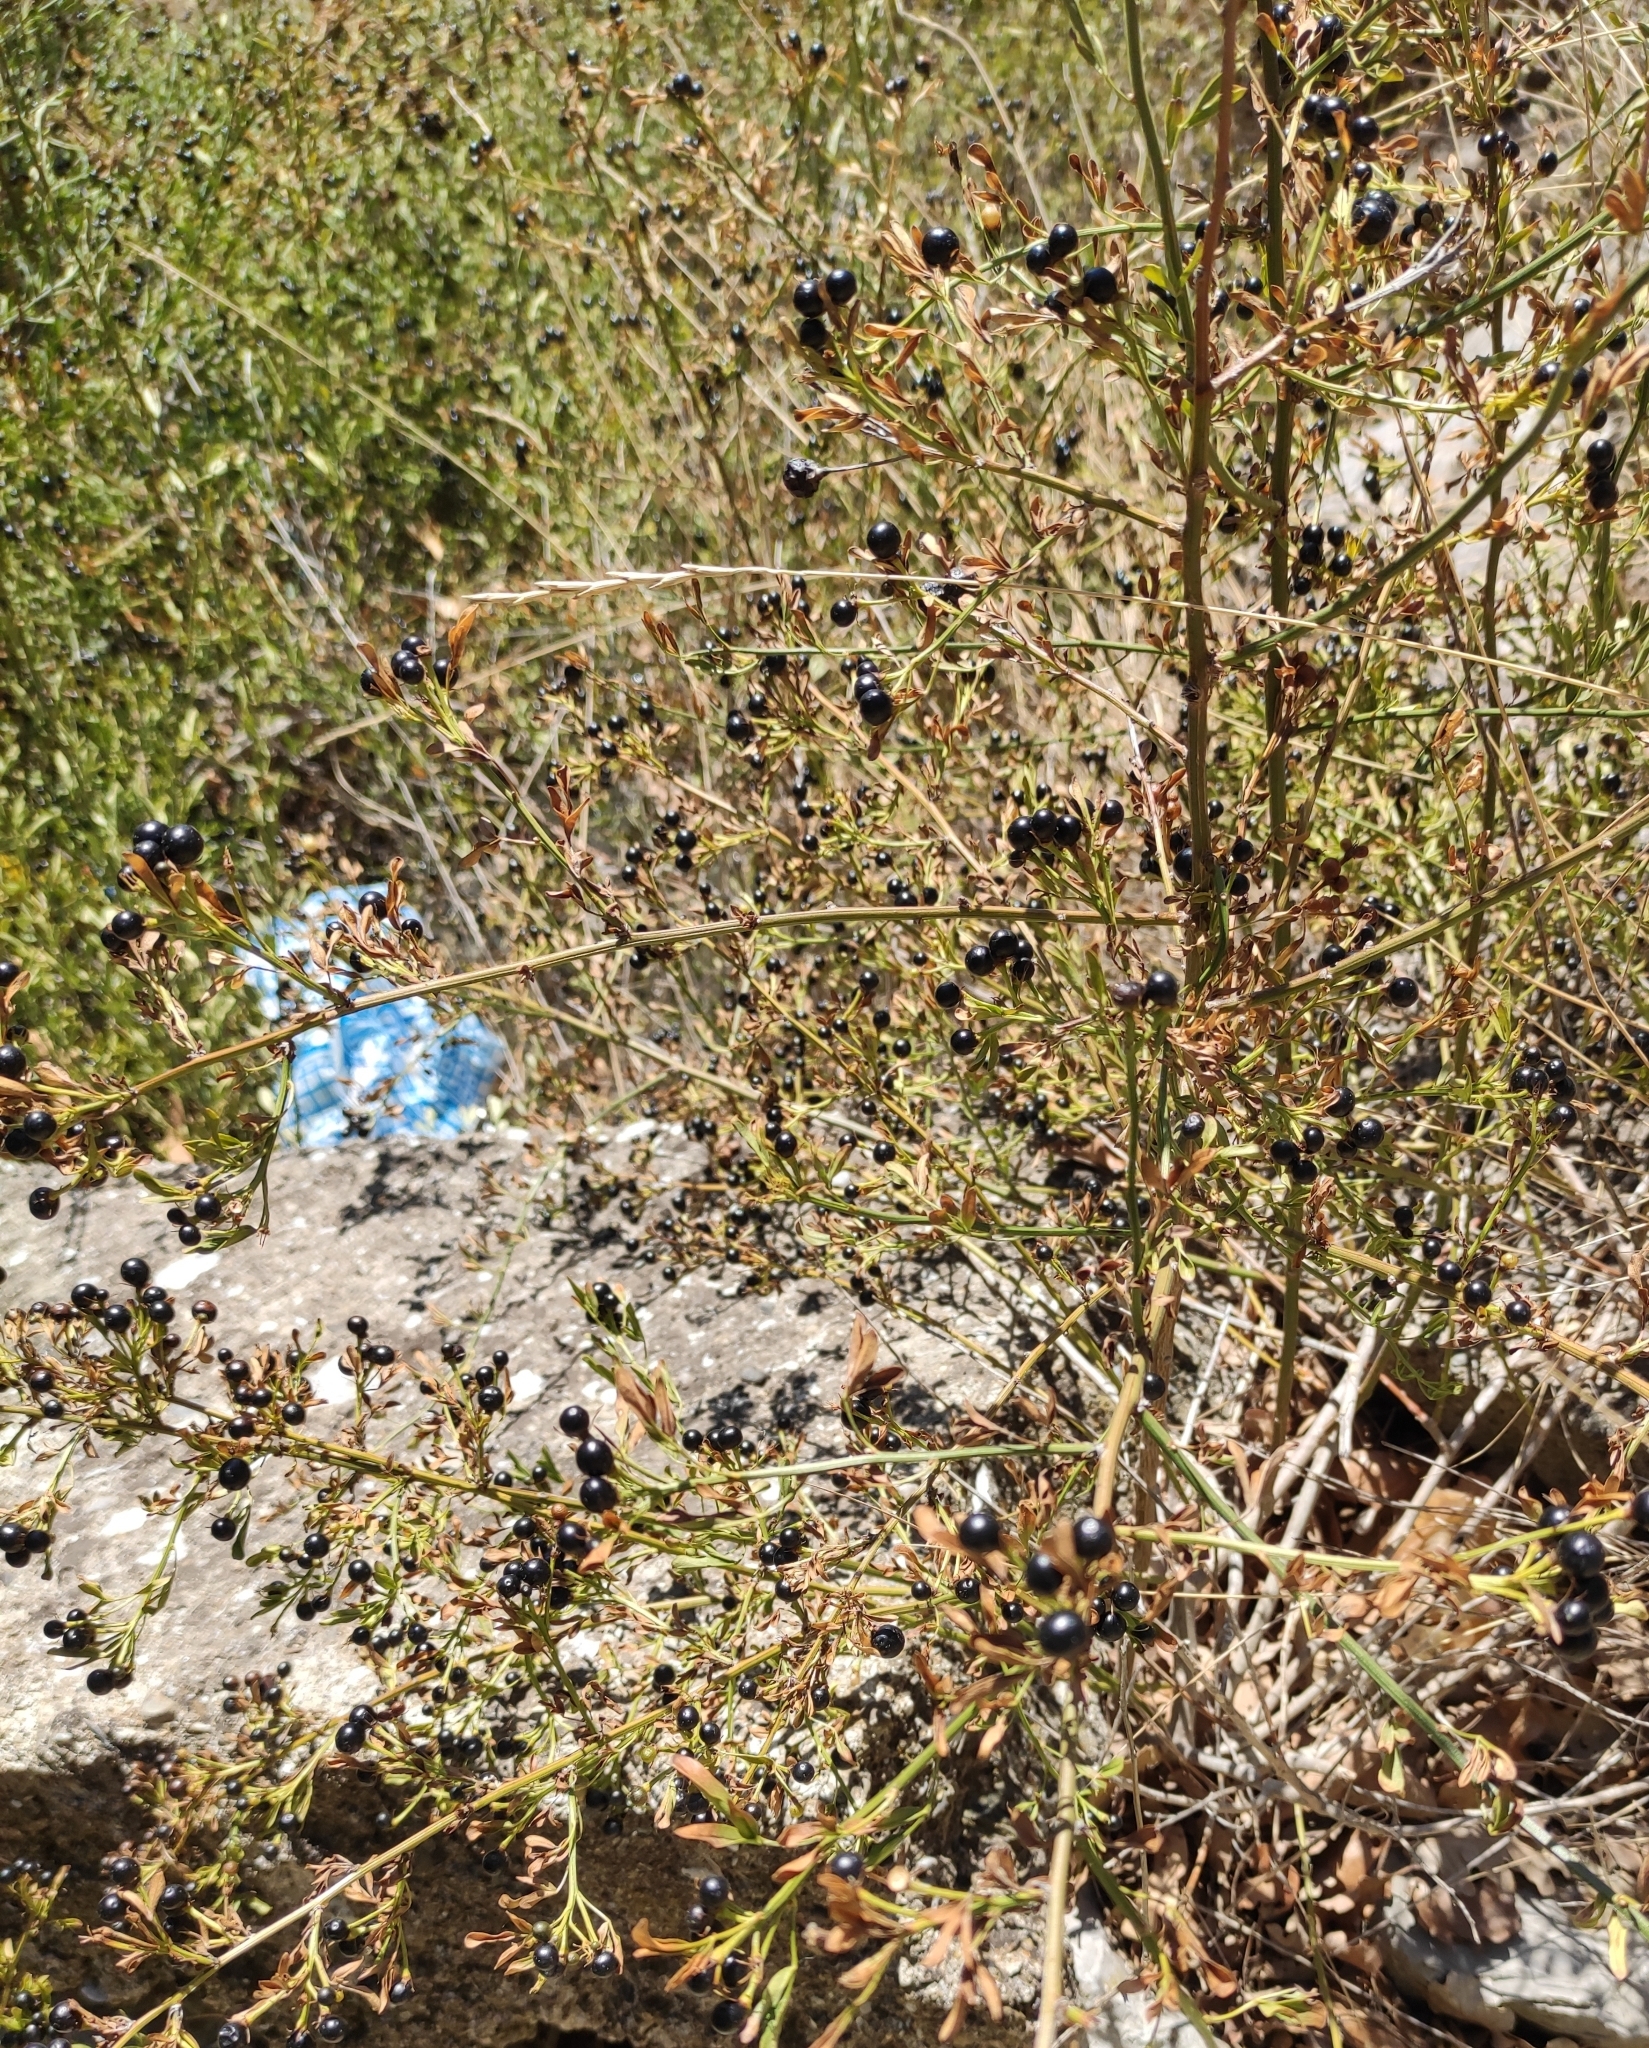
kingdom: Plantae
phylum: Tracheophyta
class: Magnoliopsida
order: Lamiales
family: Oleaceae
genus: Chrysojasminum
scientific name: Chrysojasminum fruticans
